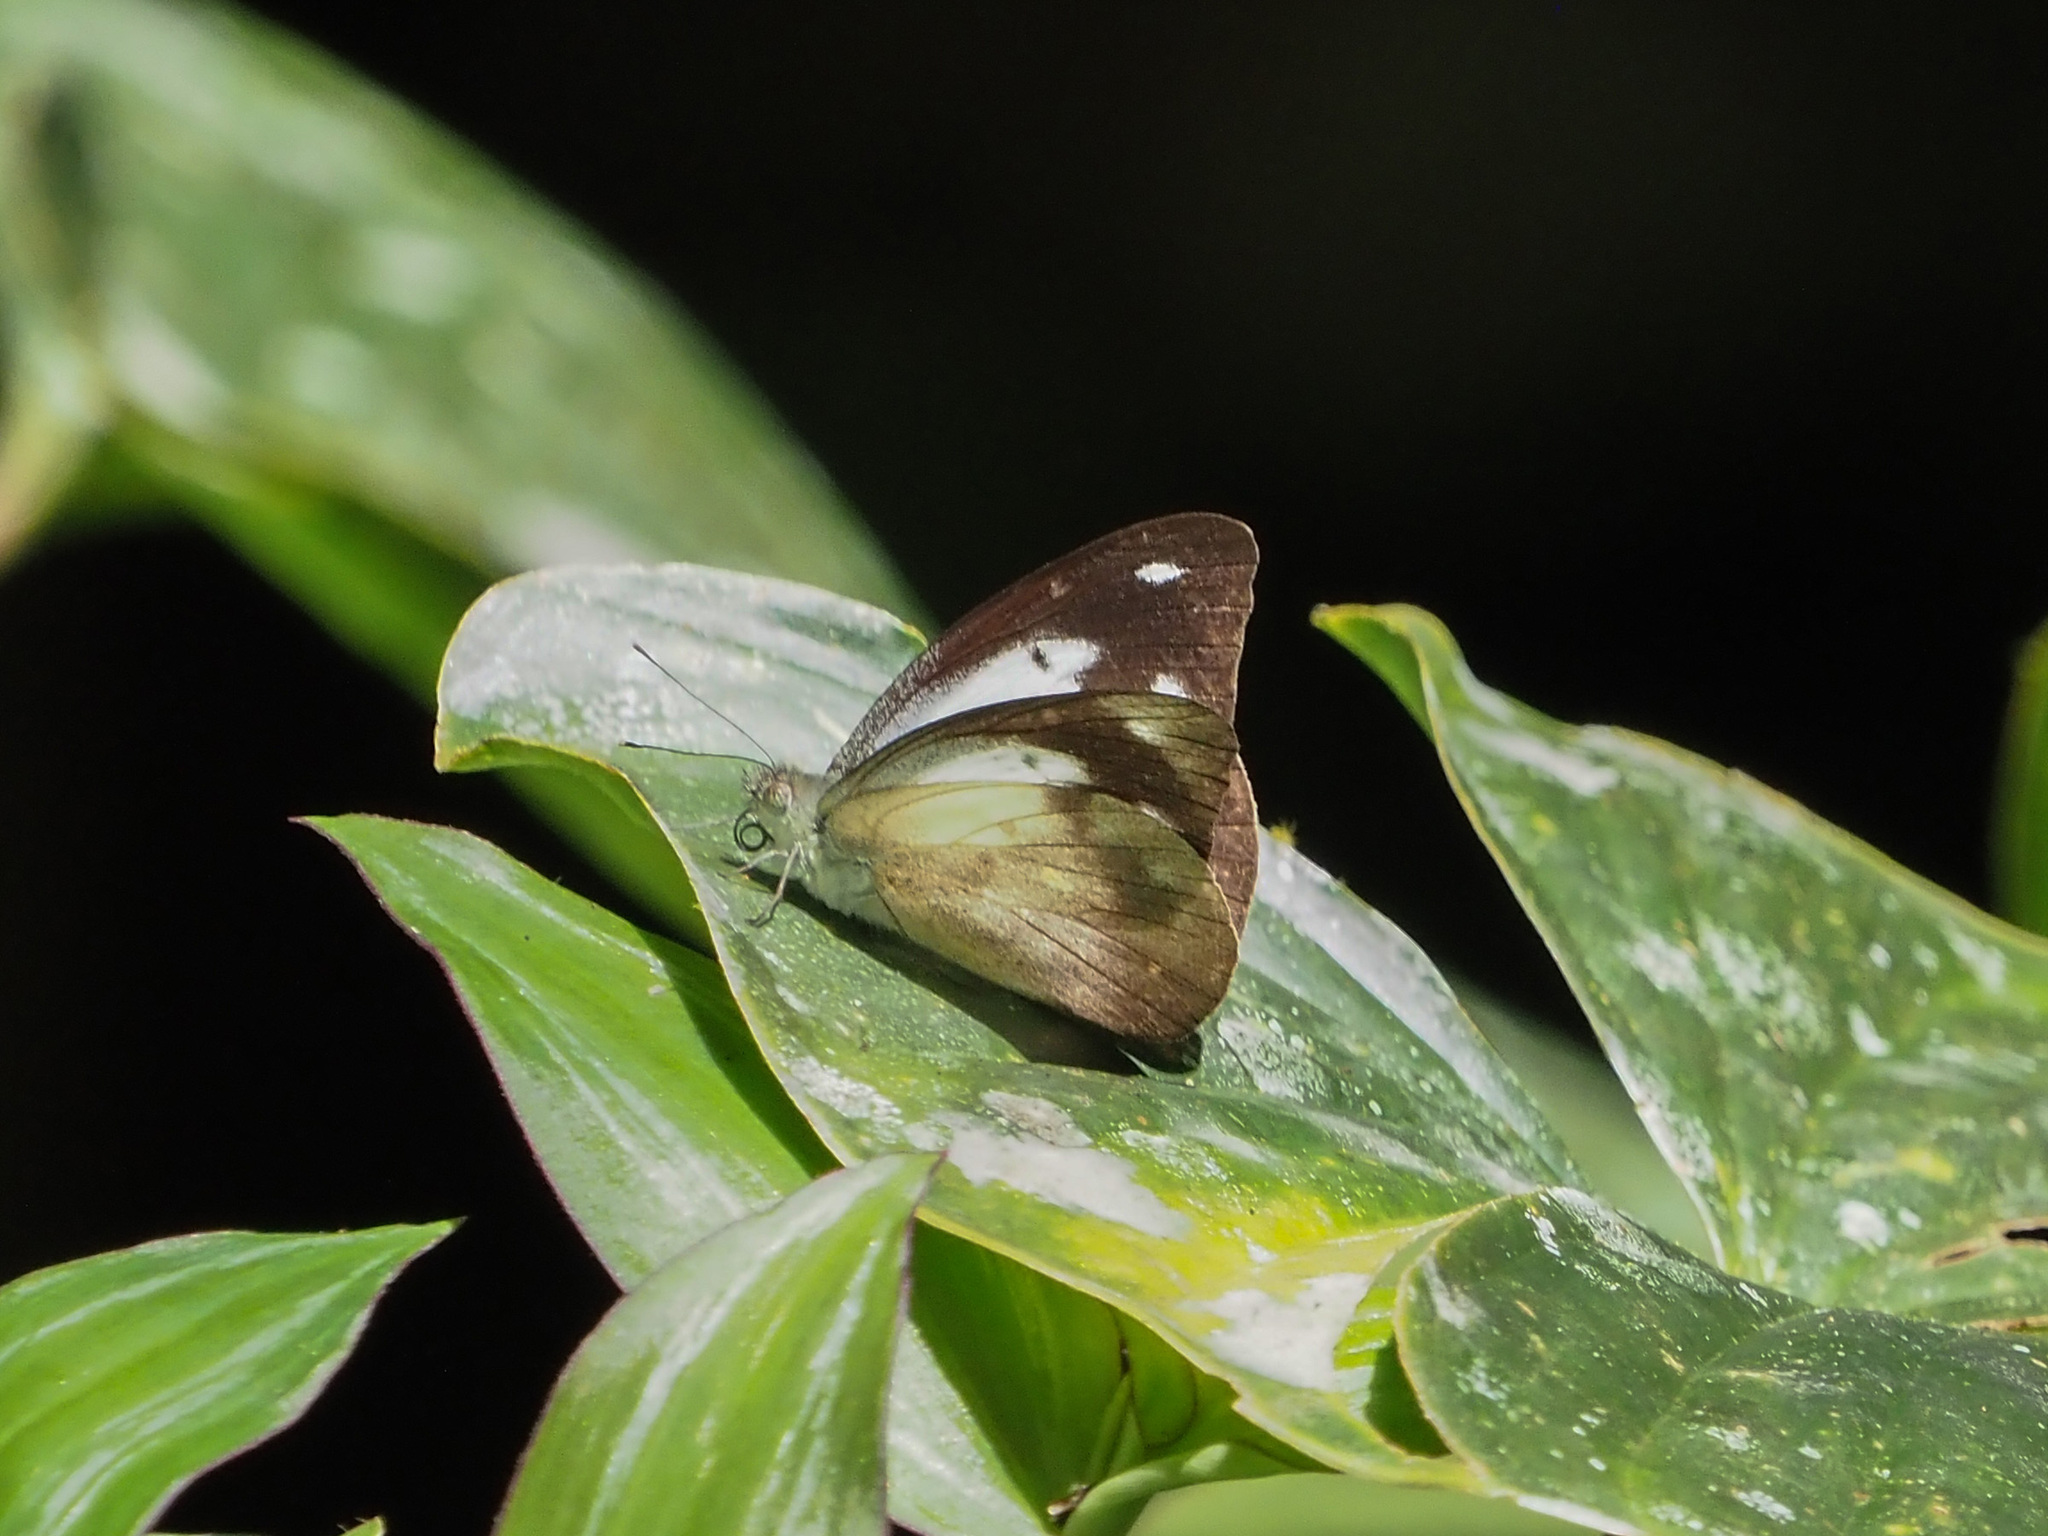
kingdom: Animalia
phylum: Arthropoda
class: Insecta
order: Lepidoptera
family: Pieridae
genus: Appias
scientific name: Appias pandione
